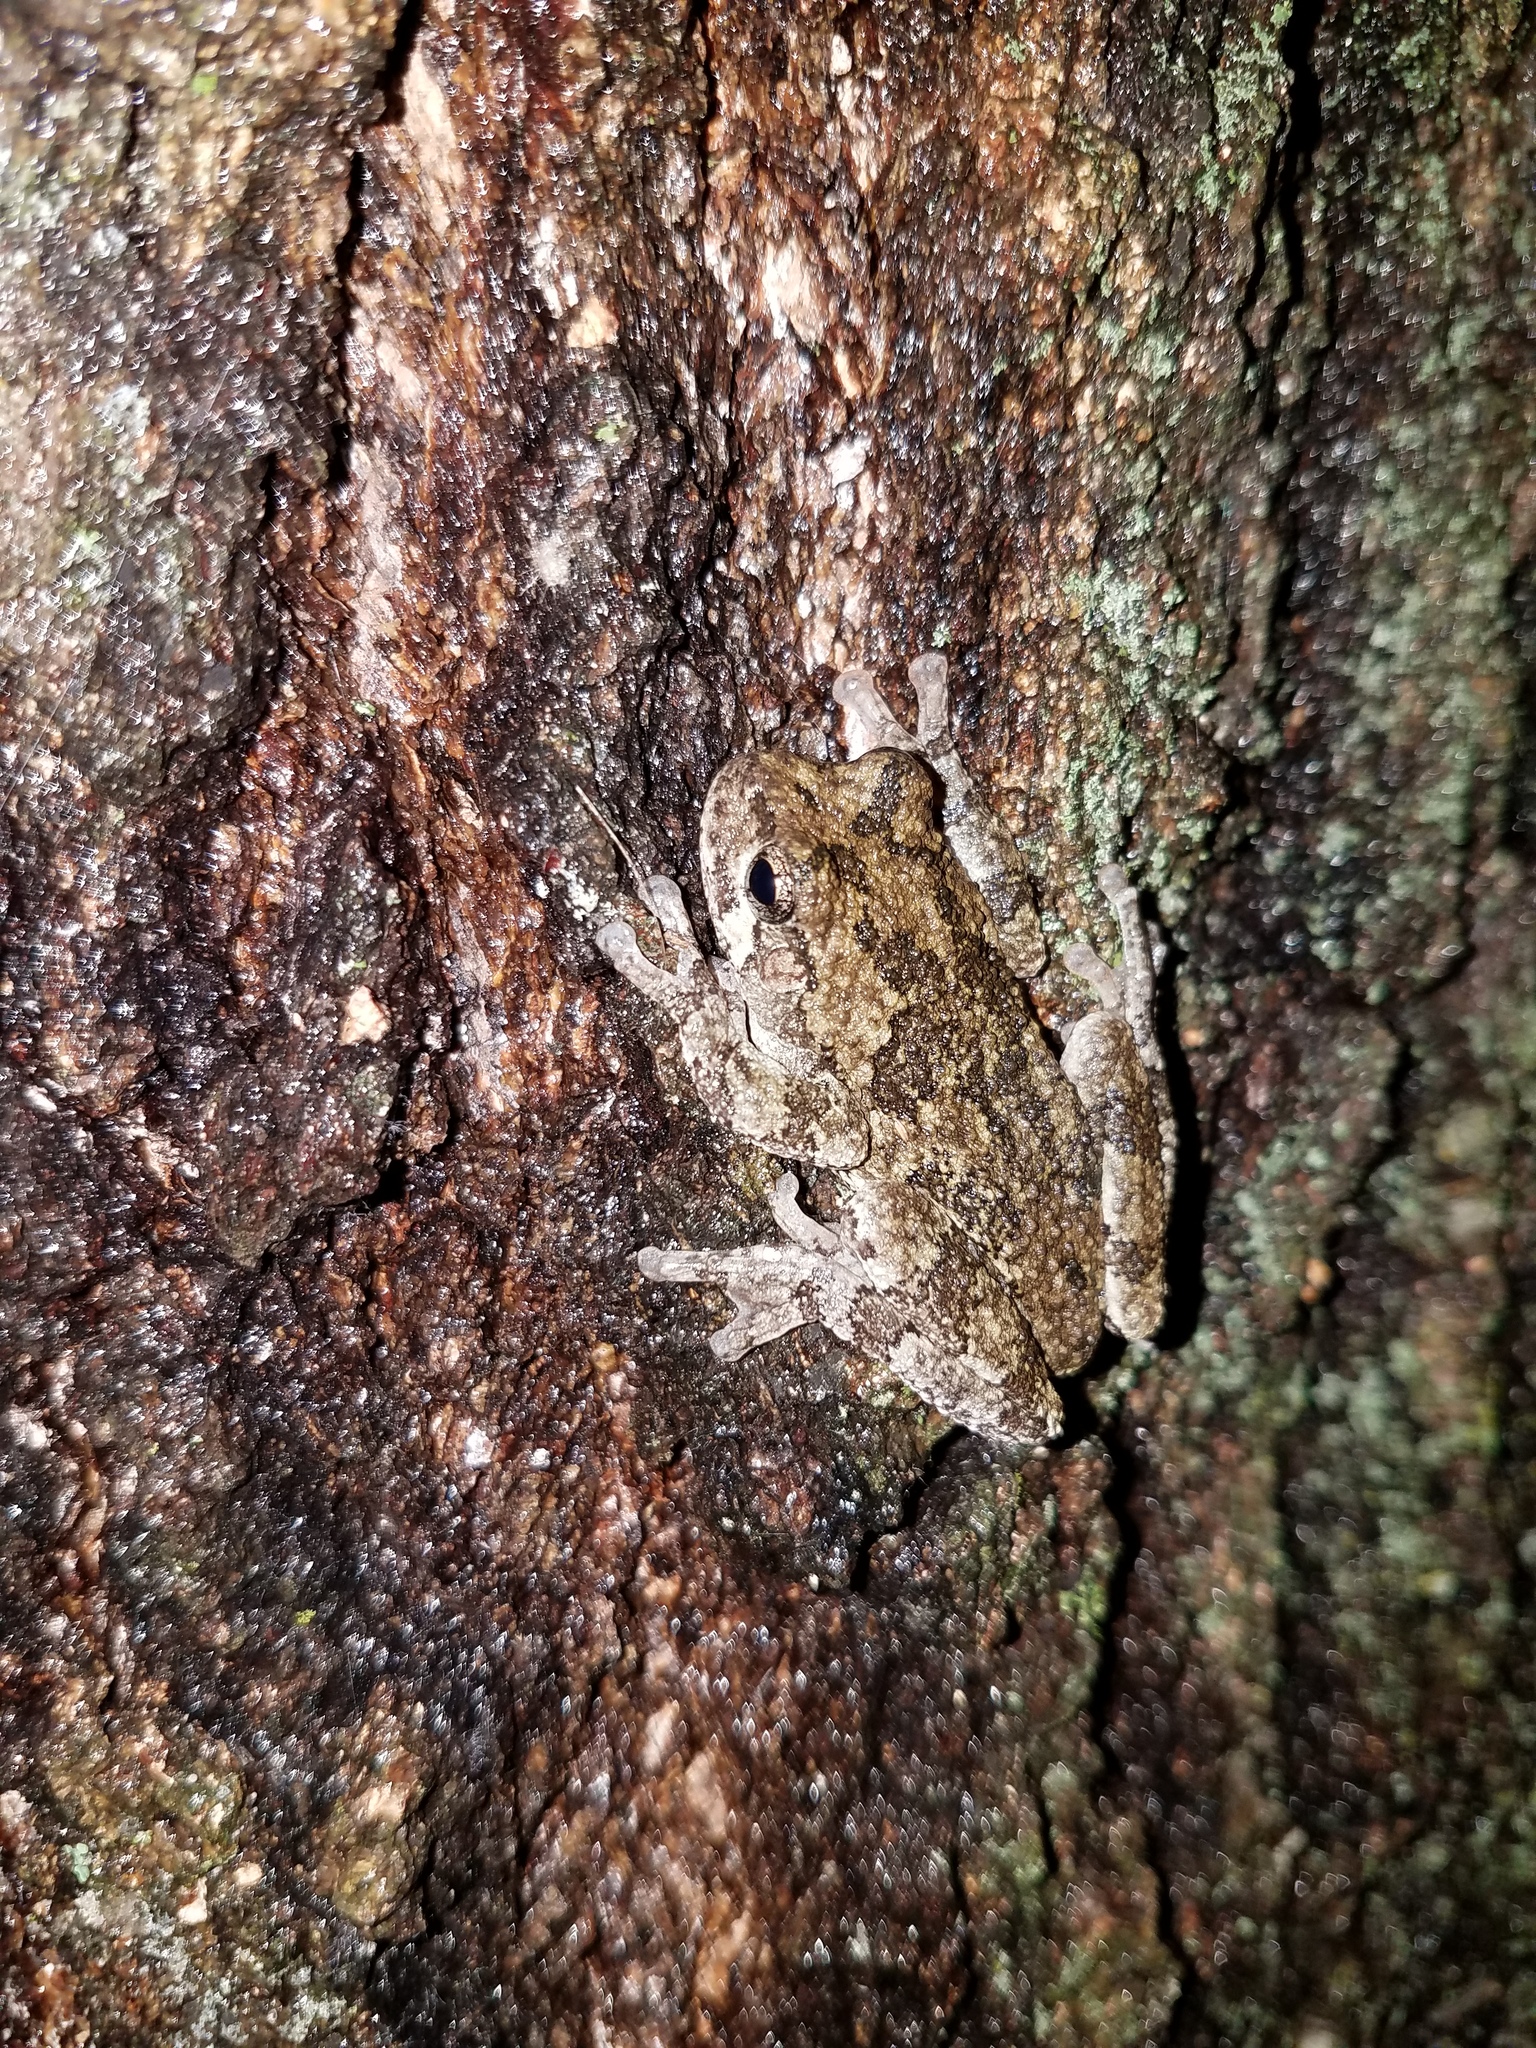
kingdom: Animalia
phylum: Chordata
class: Amphibia
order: Anura
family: Hylidae
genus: Hyla
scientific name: Hyla
